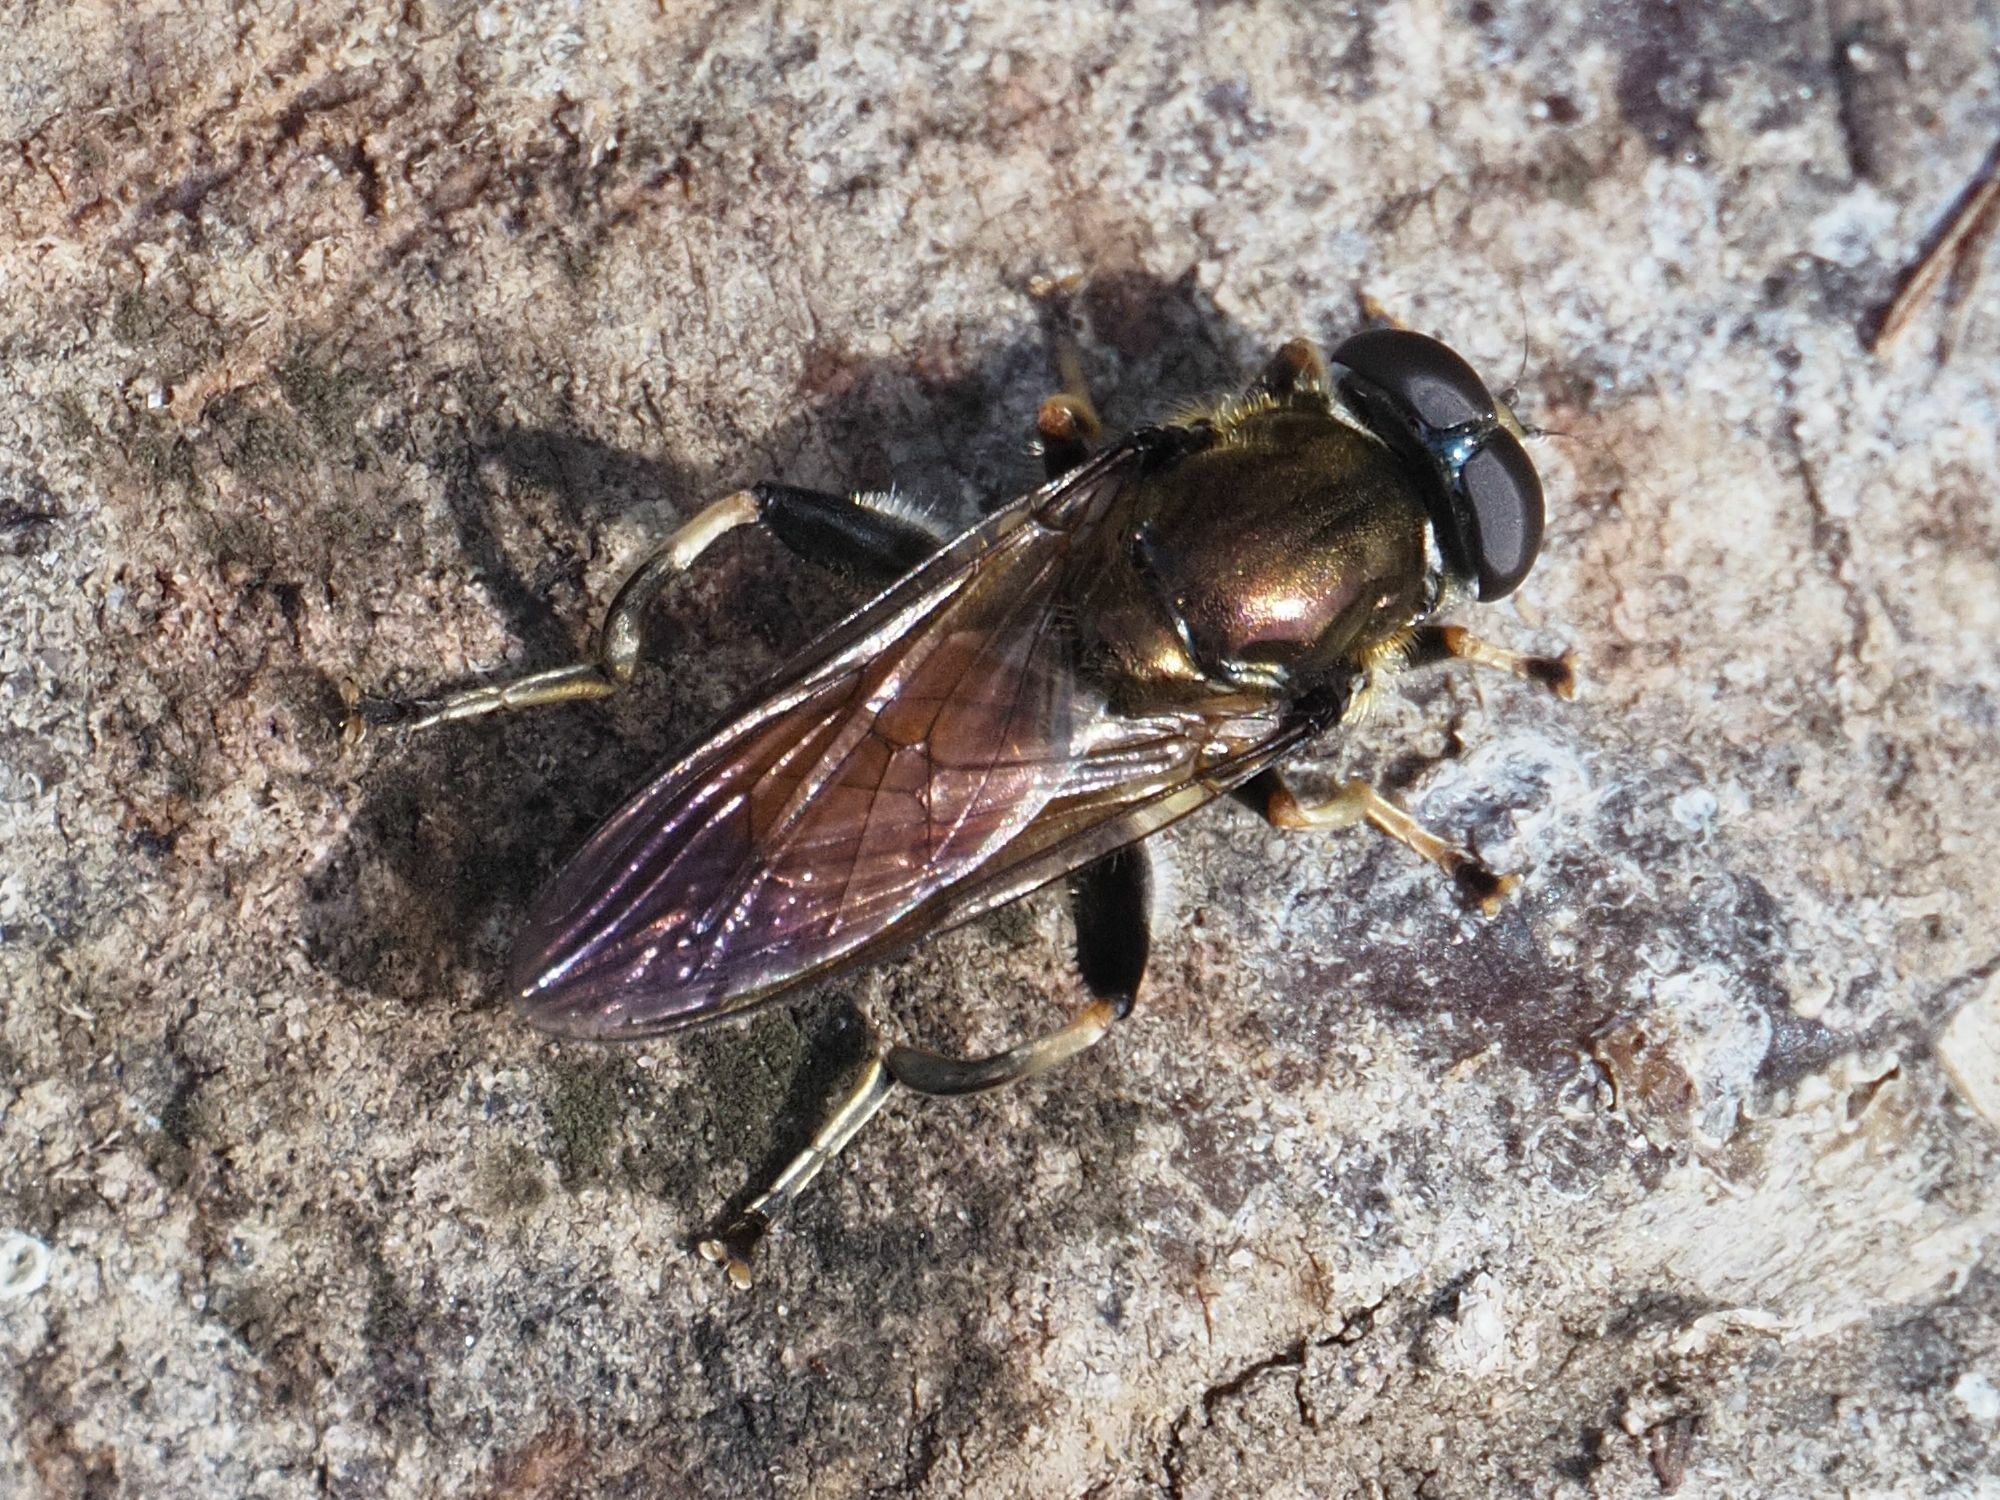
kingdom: Animalia
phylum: Arthropoda
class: Insecta
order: Diptera
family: Syrphidae
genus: Xylota
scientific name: Xylota segnis
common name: Brown-toed forest fly
